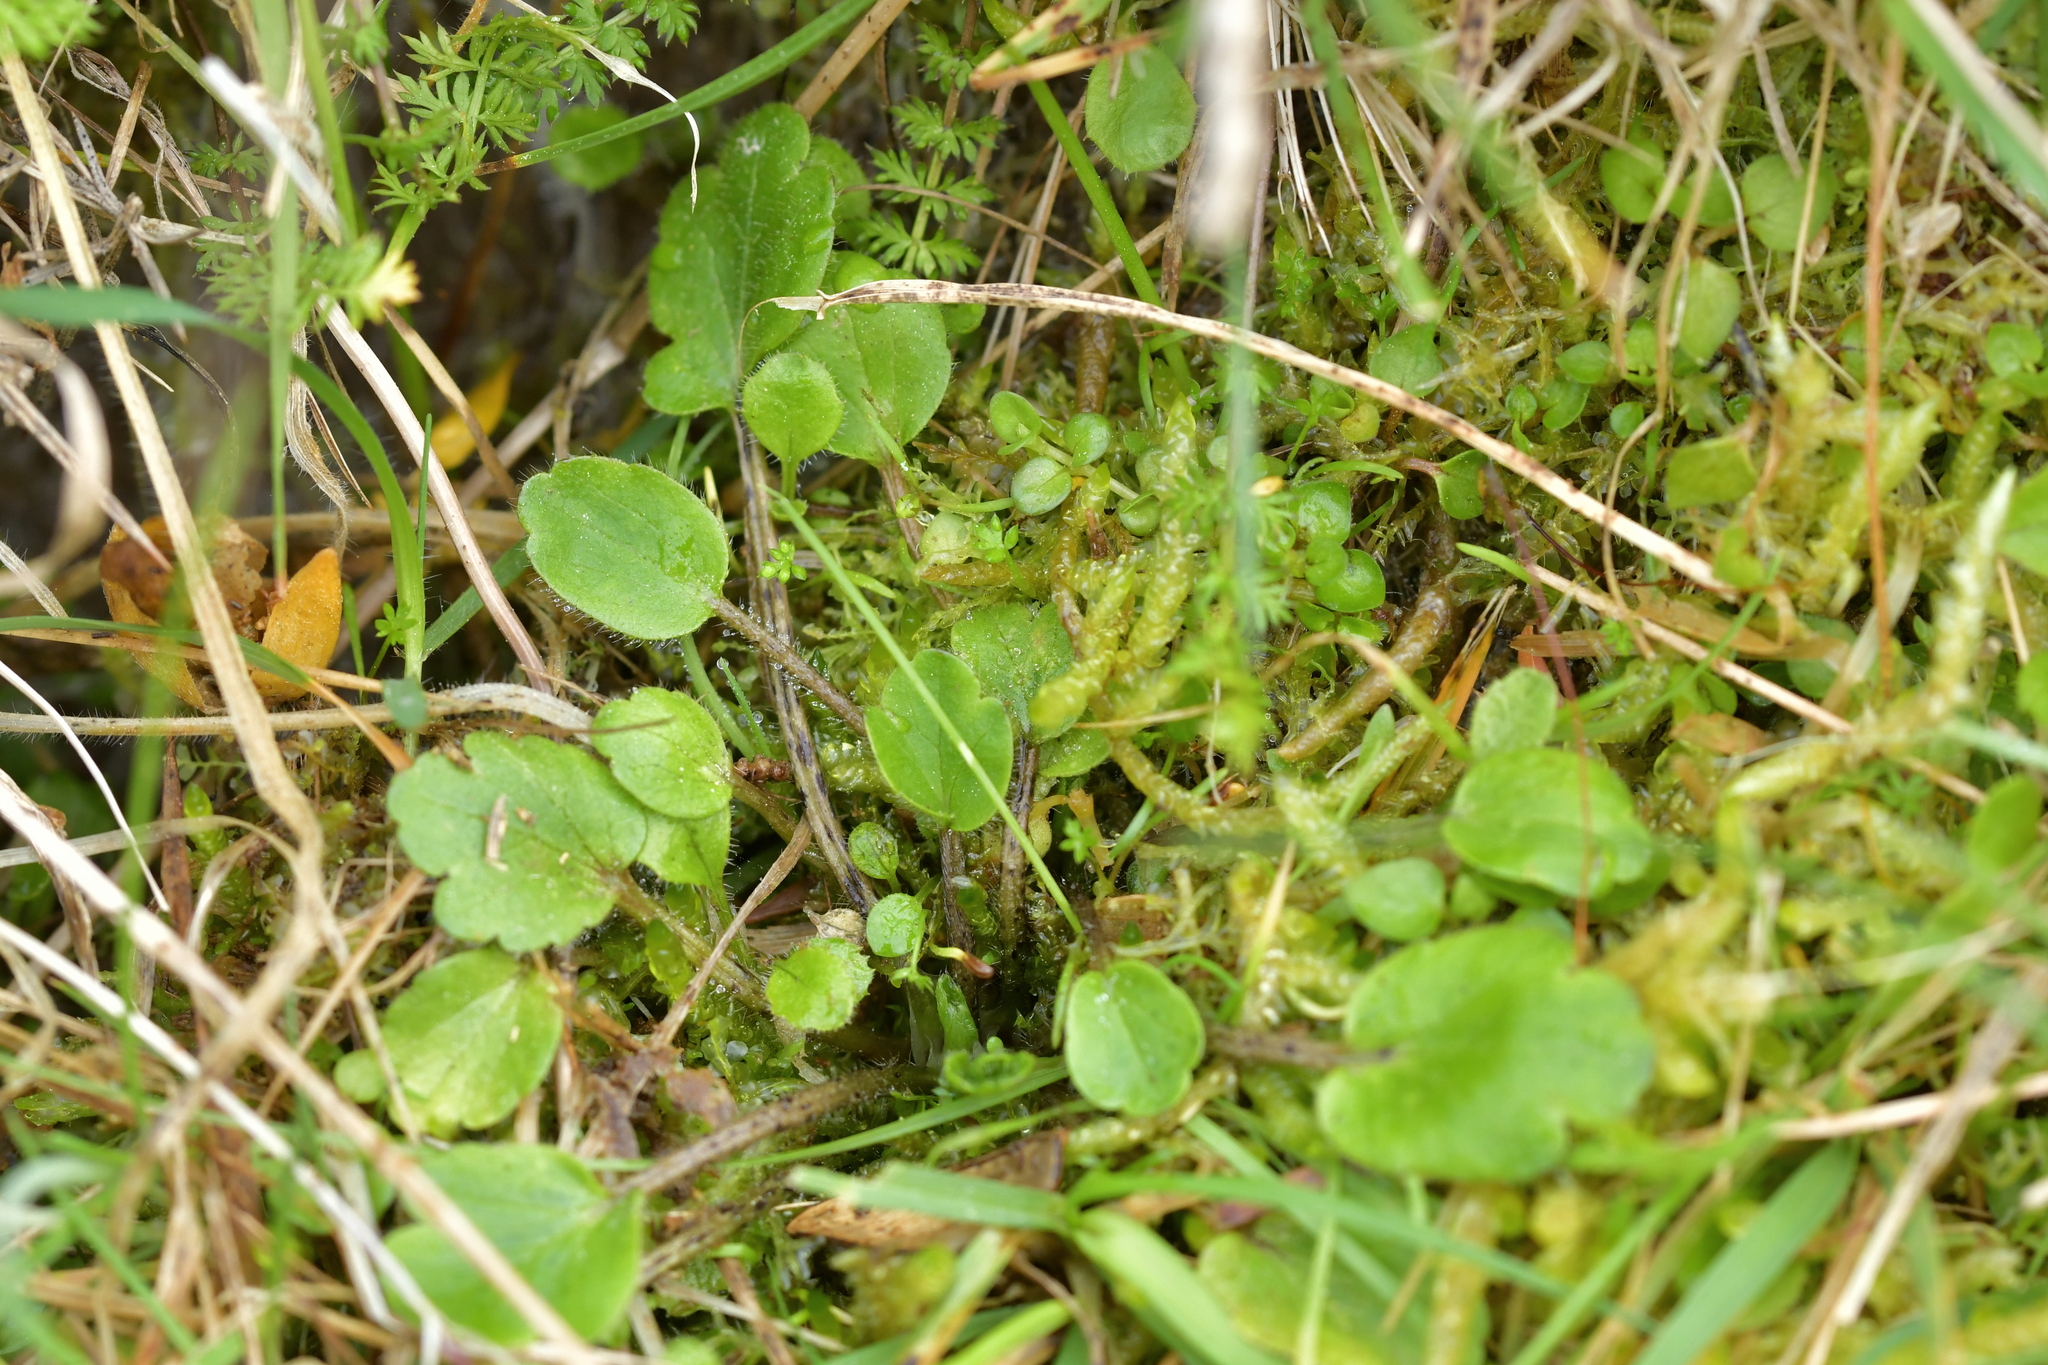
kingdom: Plantae
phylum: Tracheophyta
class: Magnoliopsida
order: Ranunculales
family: Ranunculaceae
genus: Ranunculus
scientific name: Ranunculus foliosus
